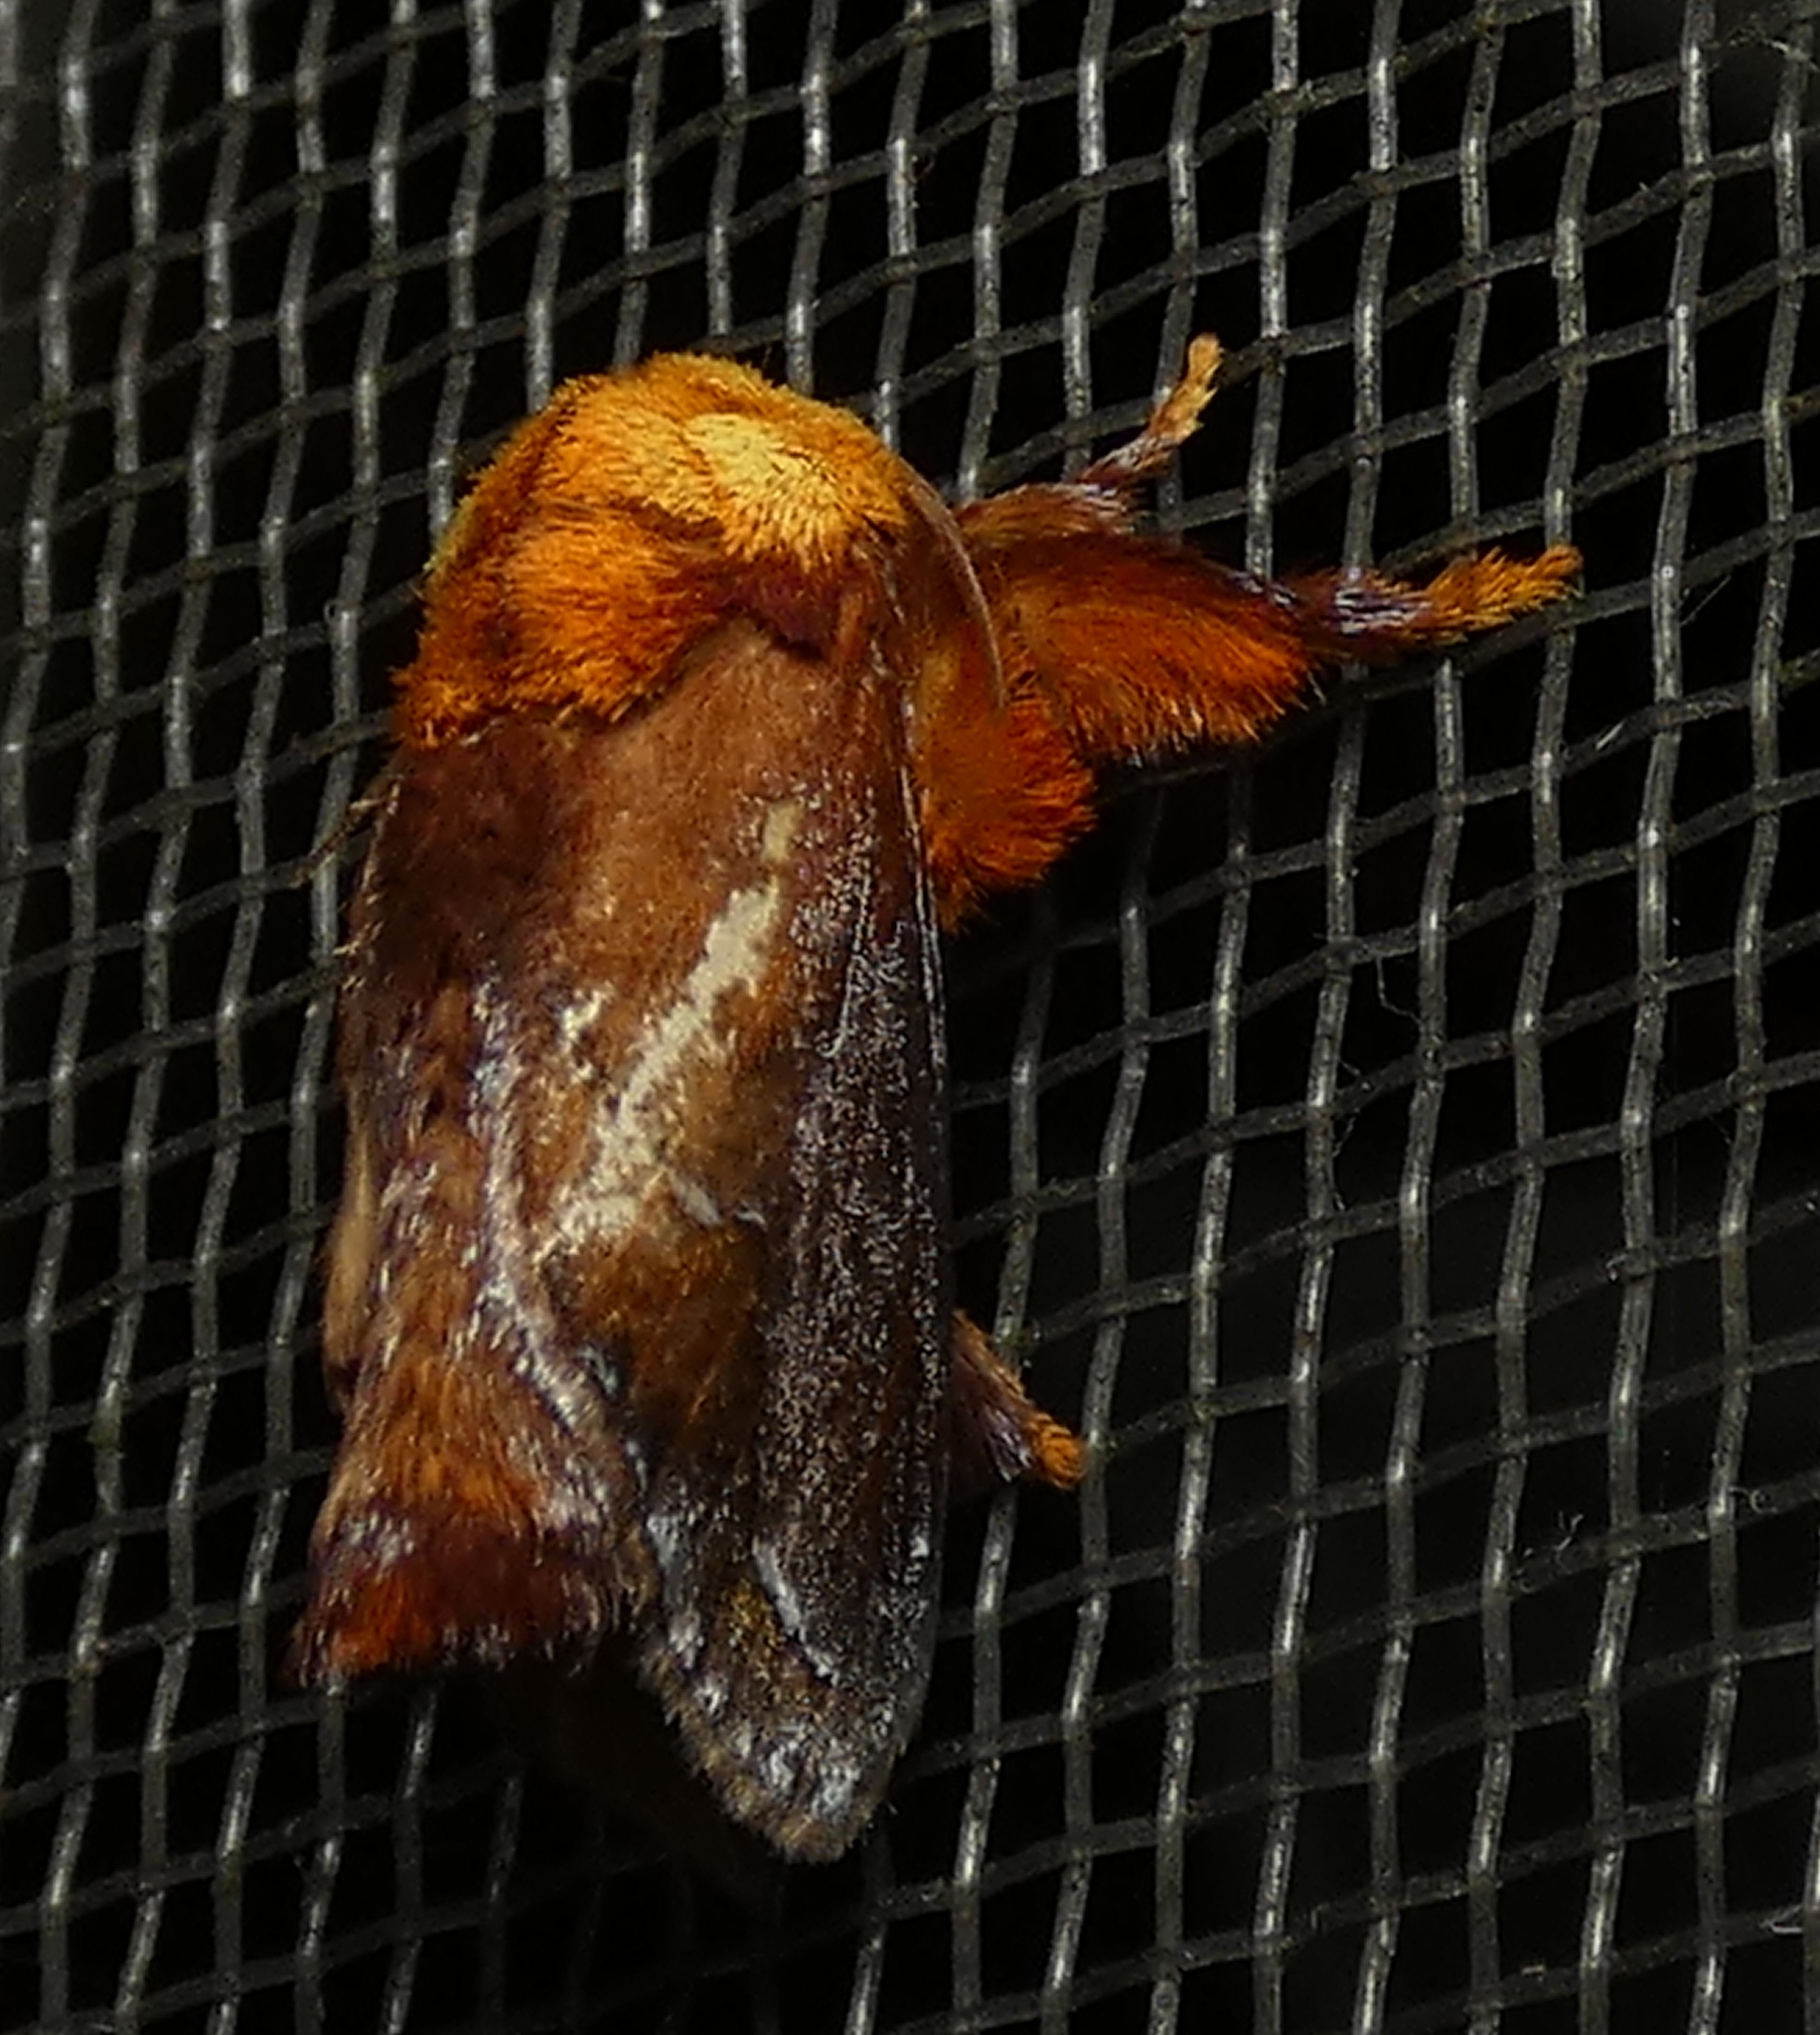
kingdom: Animalia
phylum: Arthropoda
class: Insecta
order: Lepidoptera
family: Limacodidae
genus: Miresa
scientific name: Miresa clarissa
